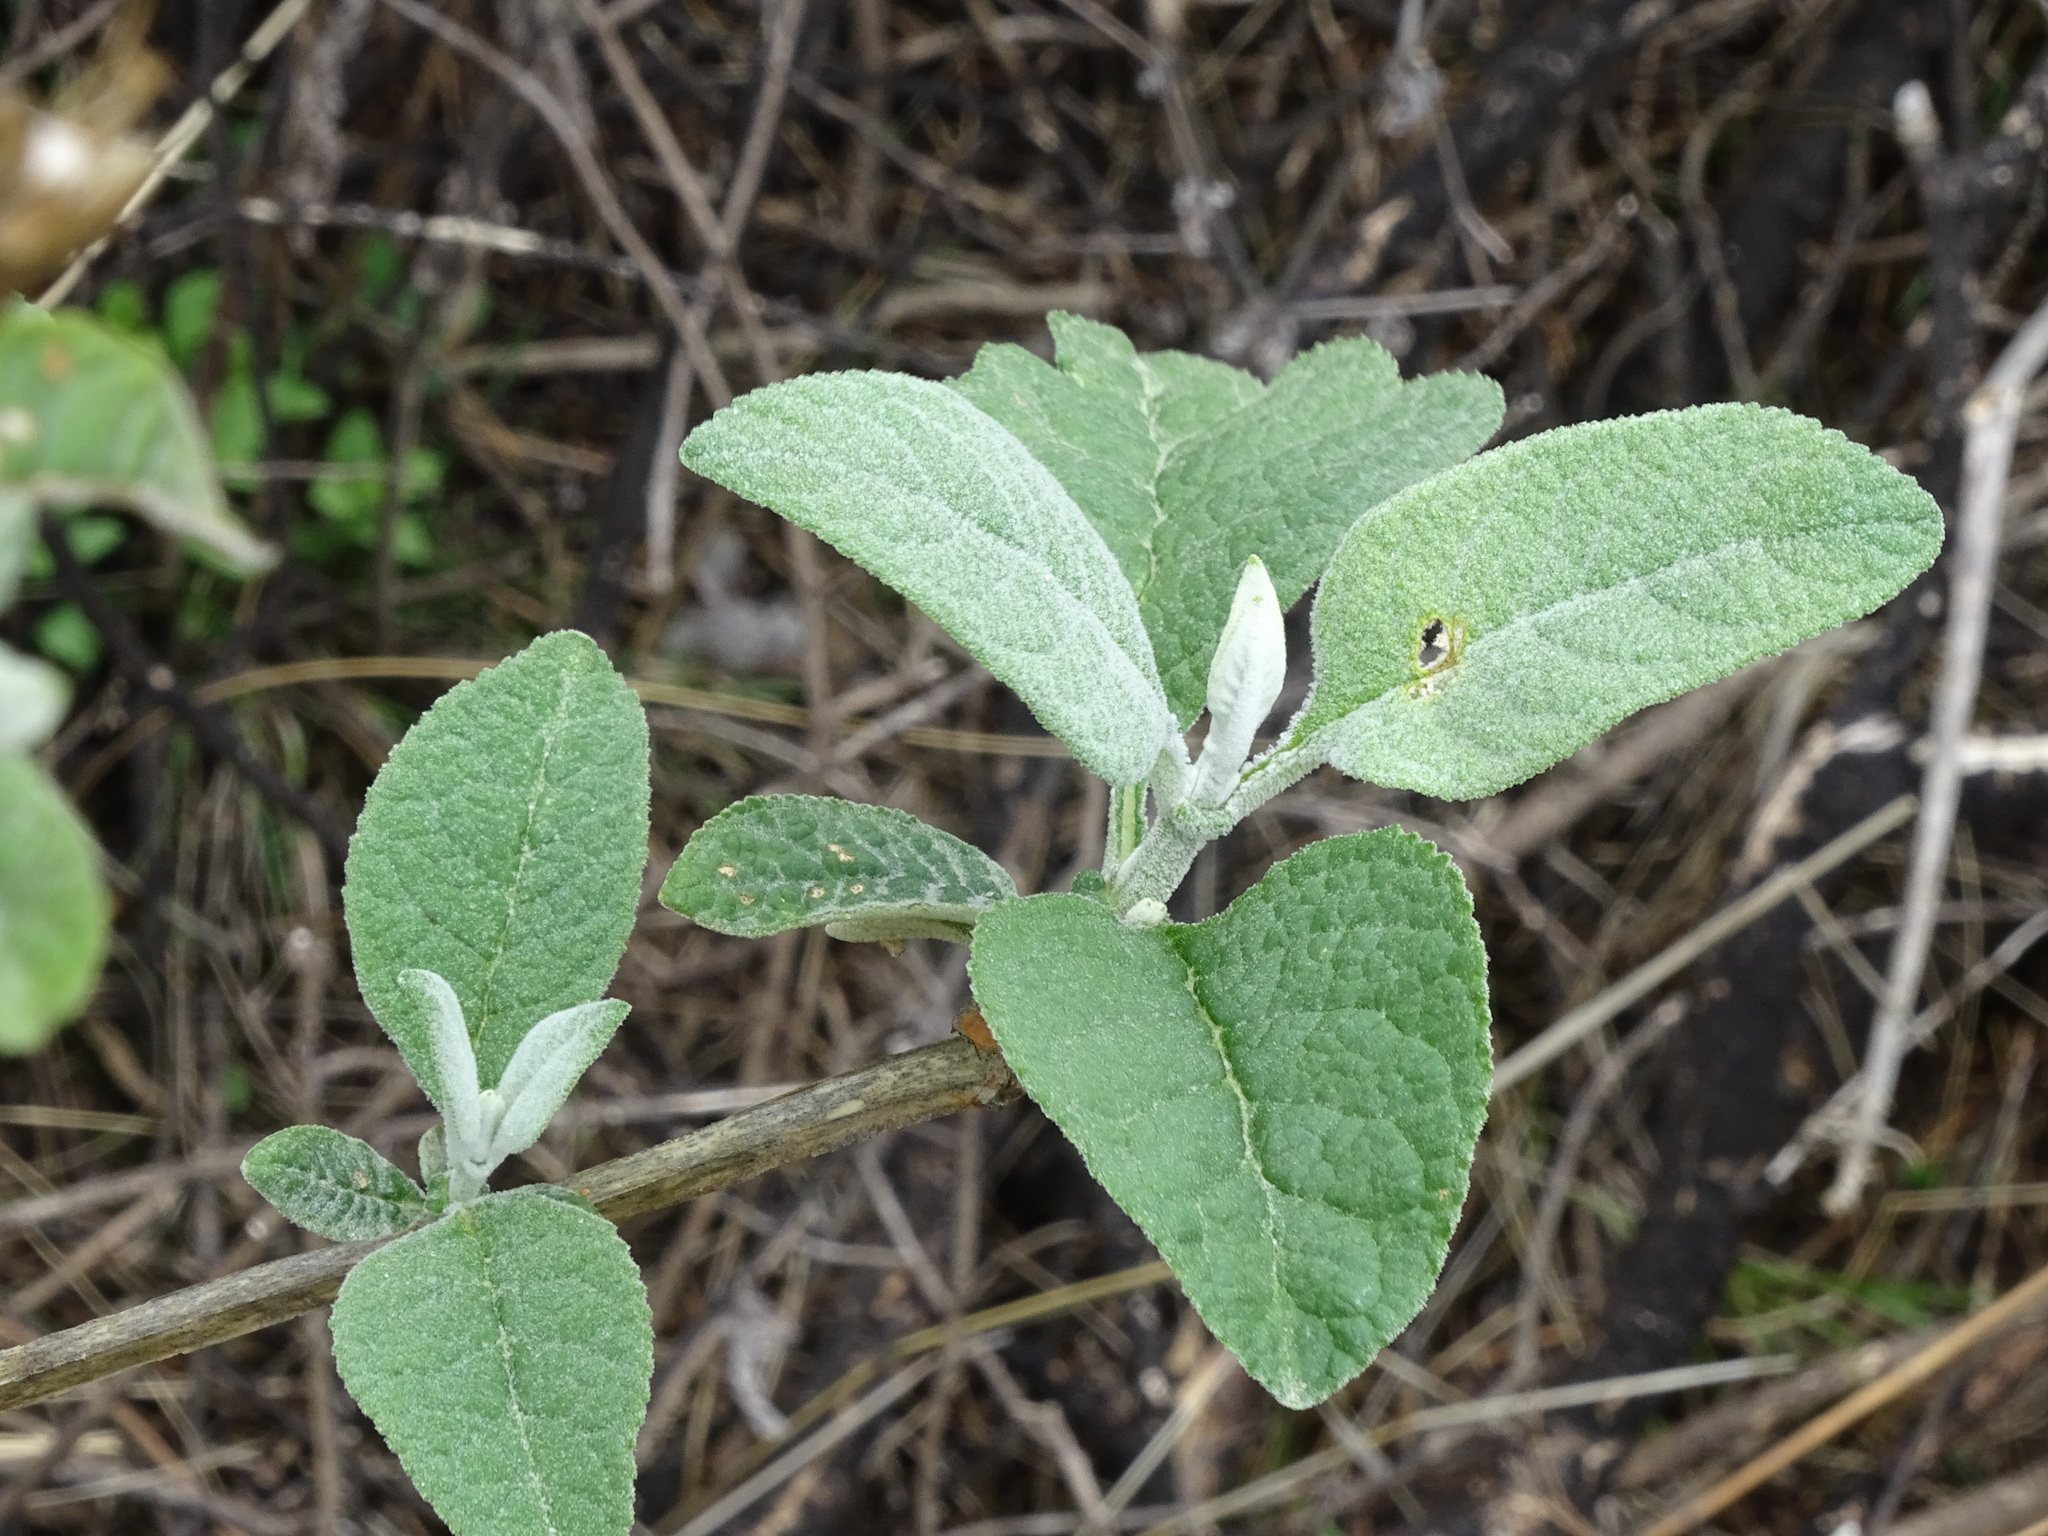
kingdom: Plantae
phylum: Tracheophyta
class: Magnoliopsida
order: Lamiales
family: Scrophulariaceae
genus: Buddleja
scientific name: Buddleja cordata
